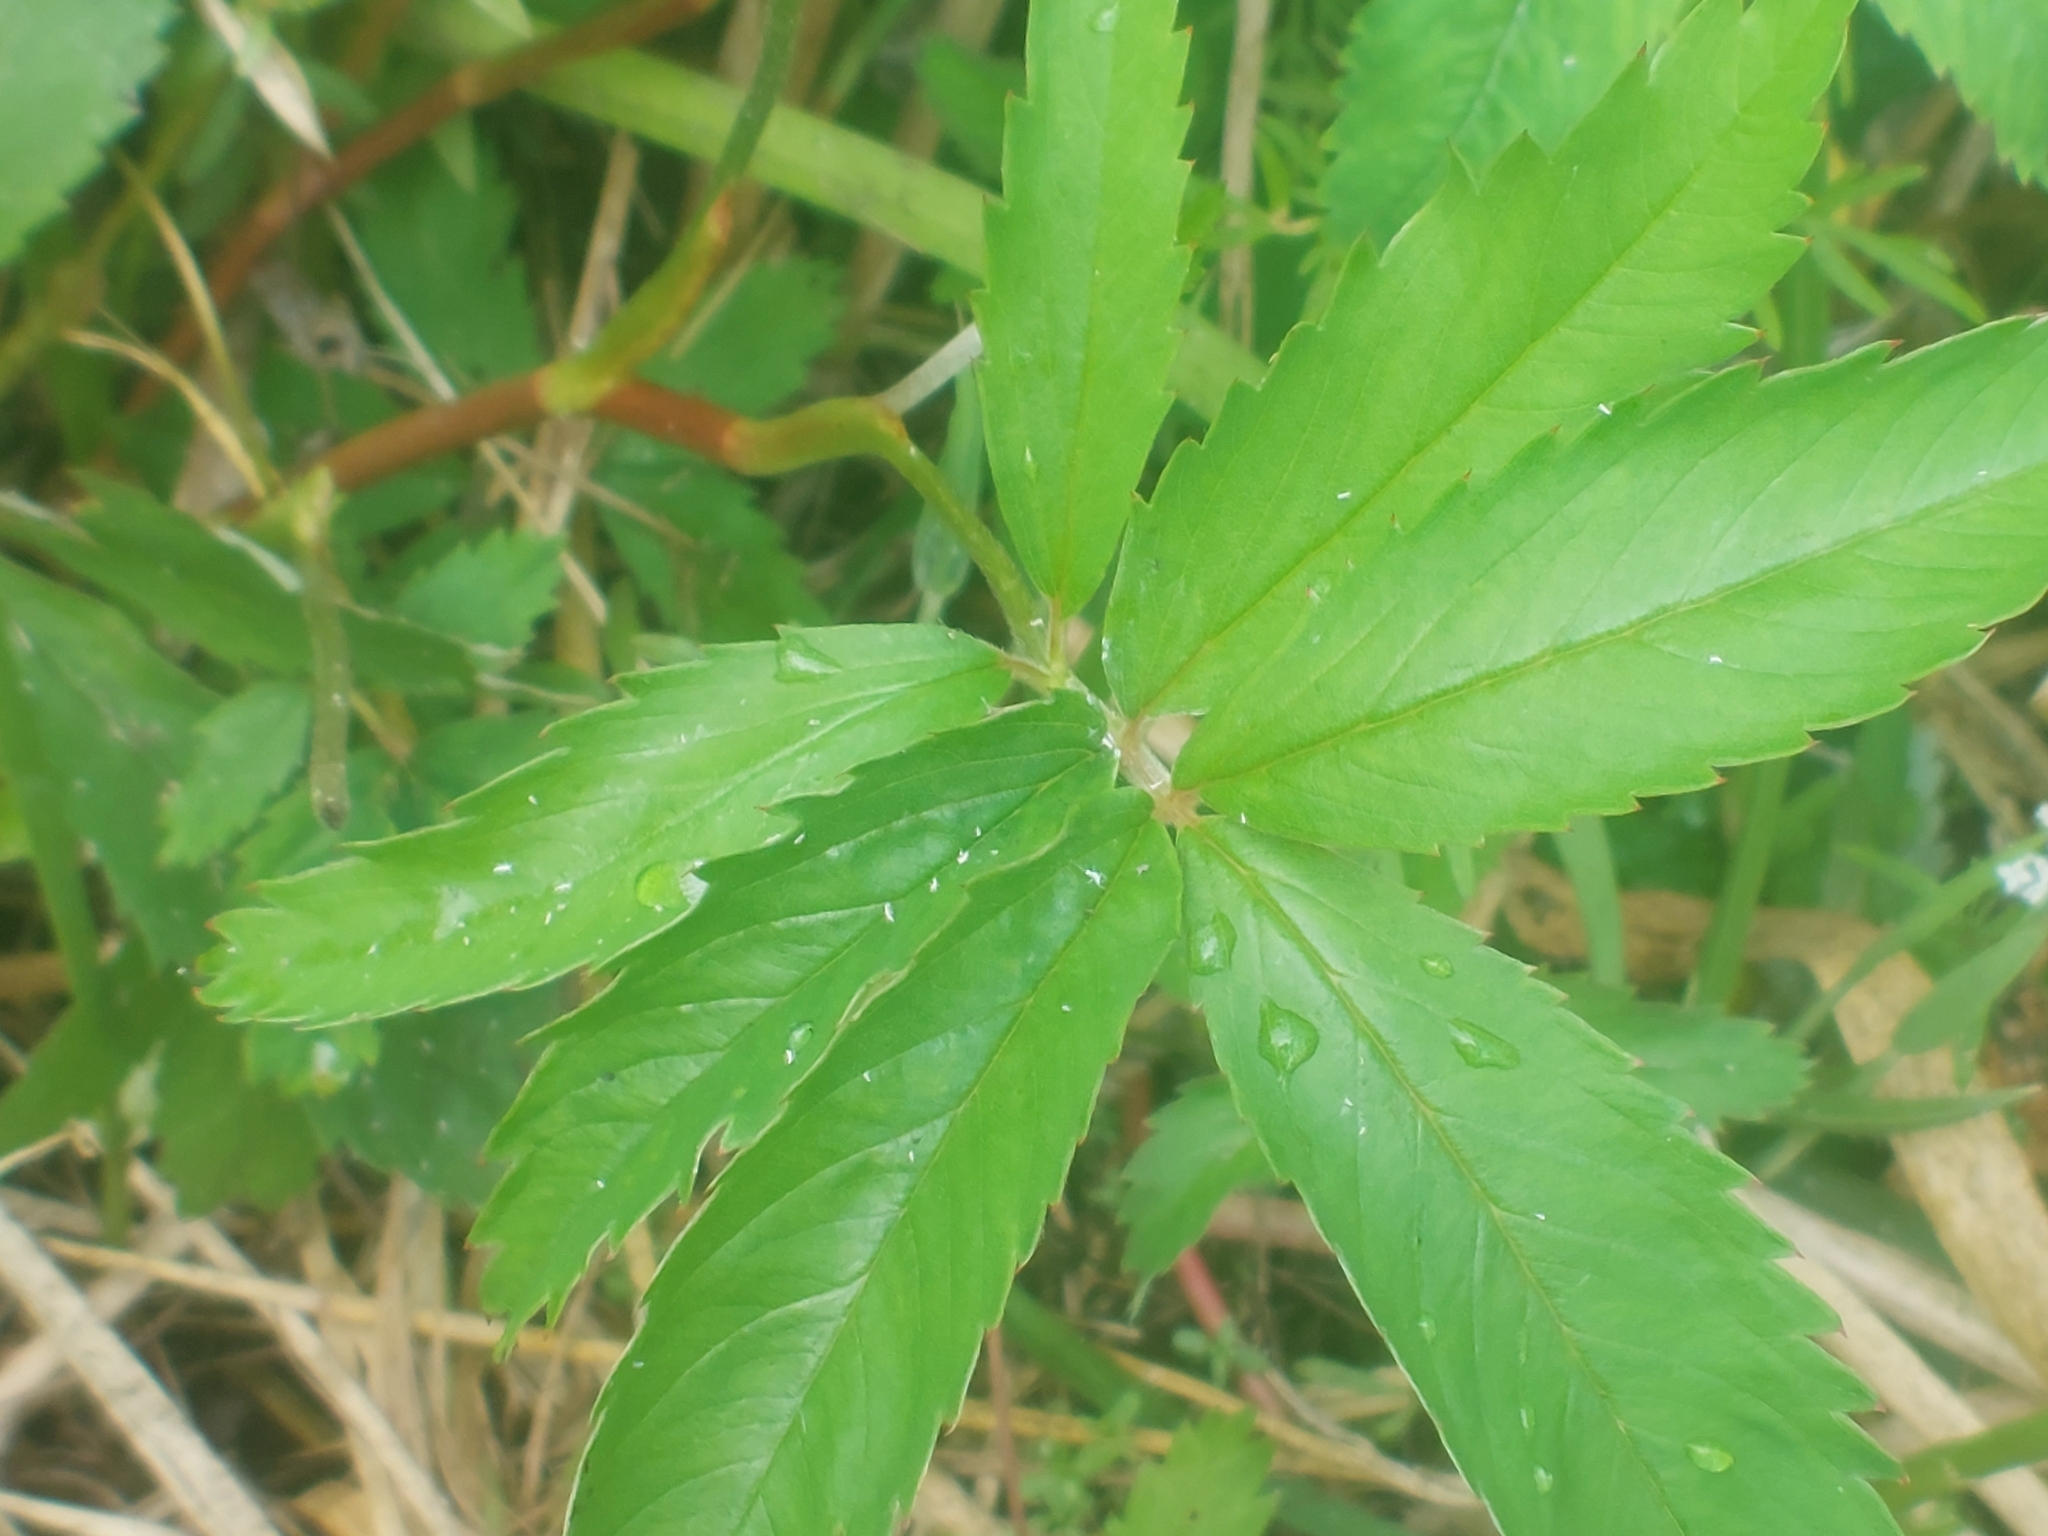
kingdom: Plantae
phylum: Tracheophyta
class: Magnoliopsida
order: Rosales
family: Rosaceae
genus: Comarum
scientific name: Comarum palustre
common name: Marsh cinquefoil
